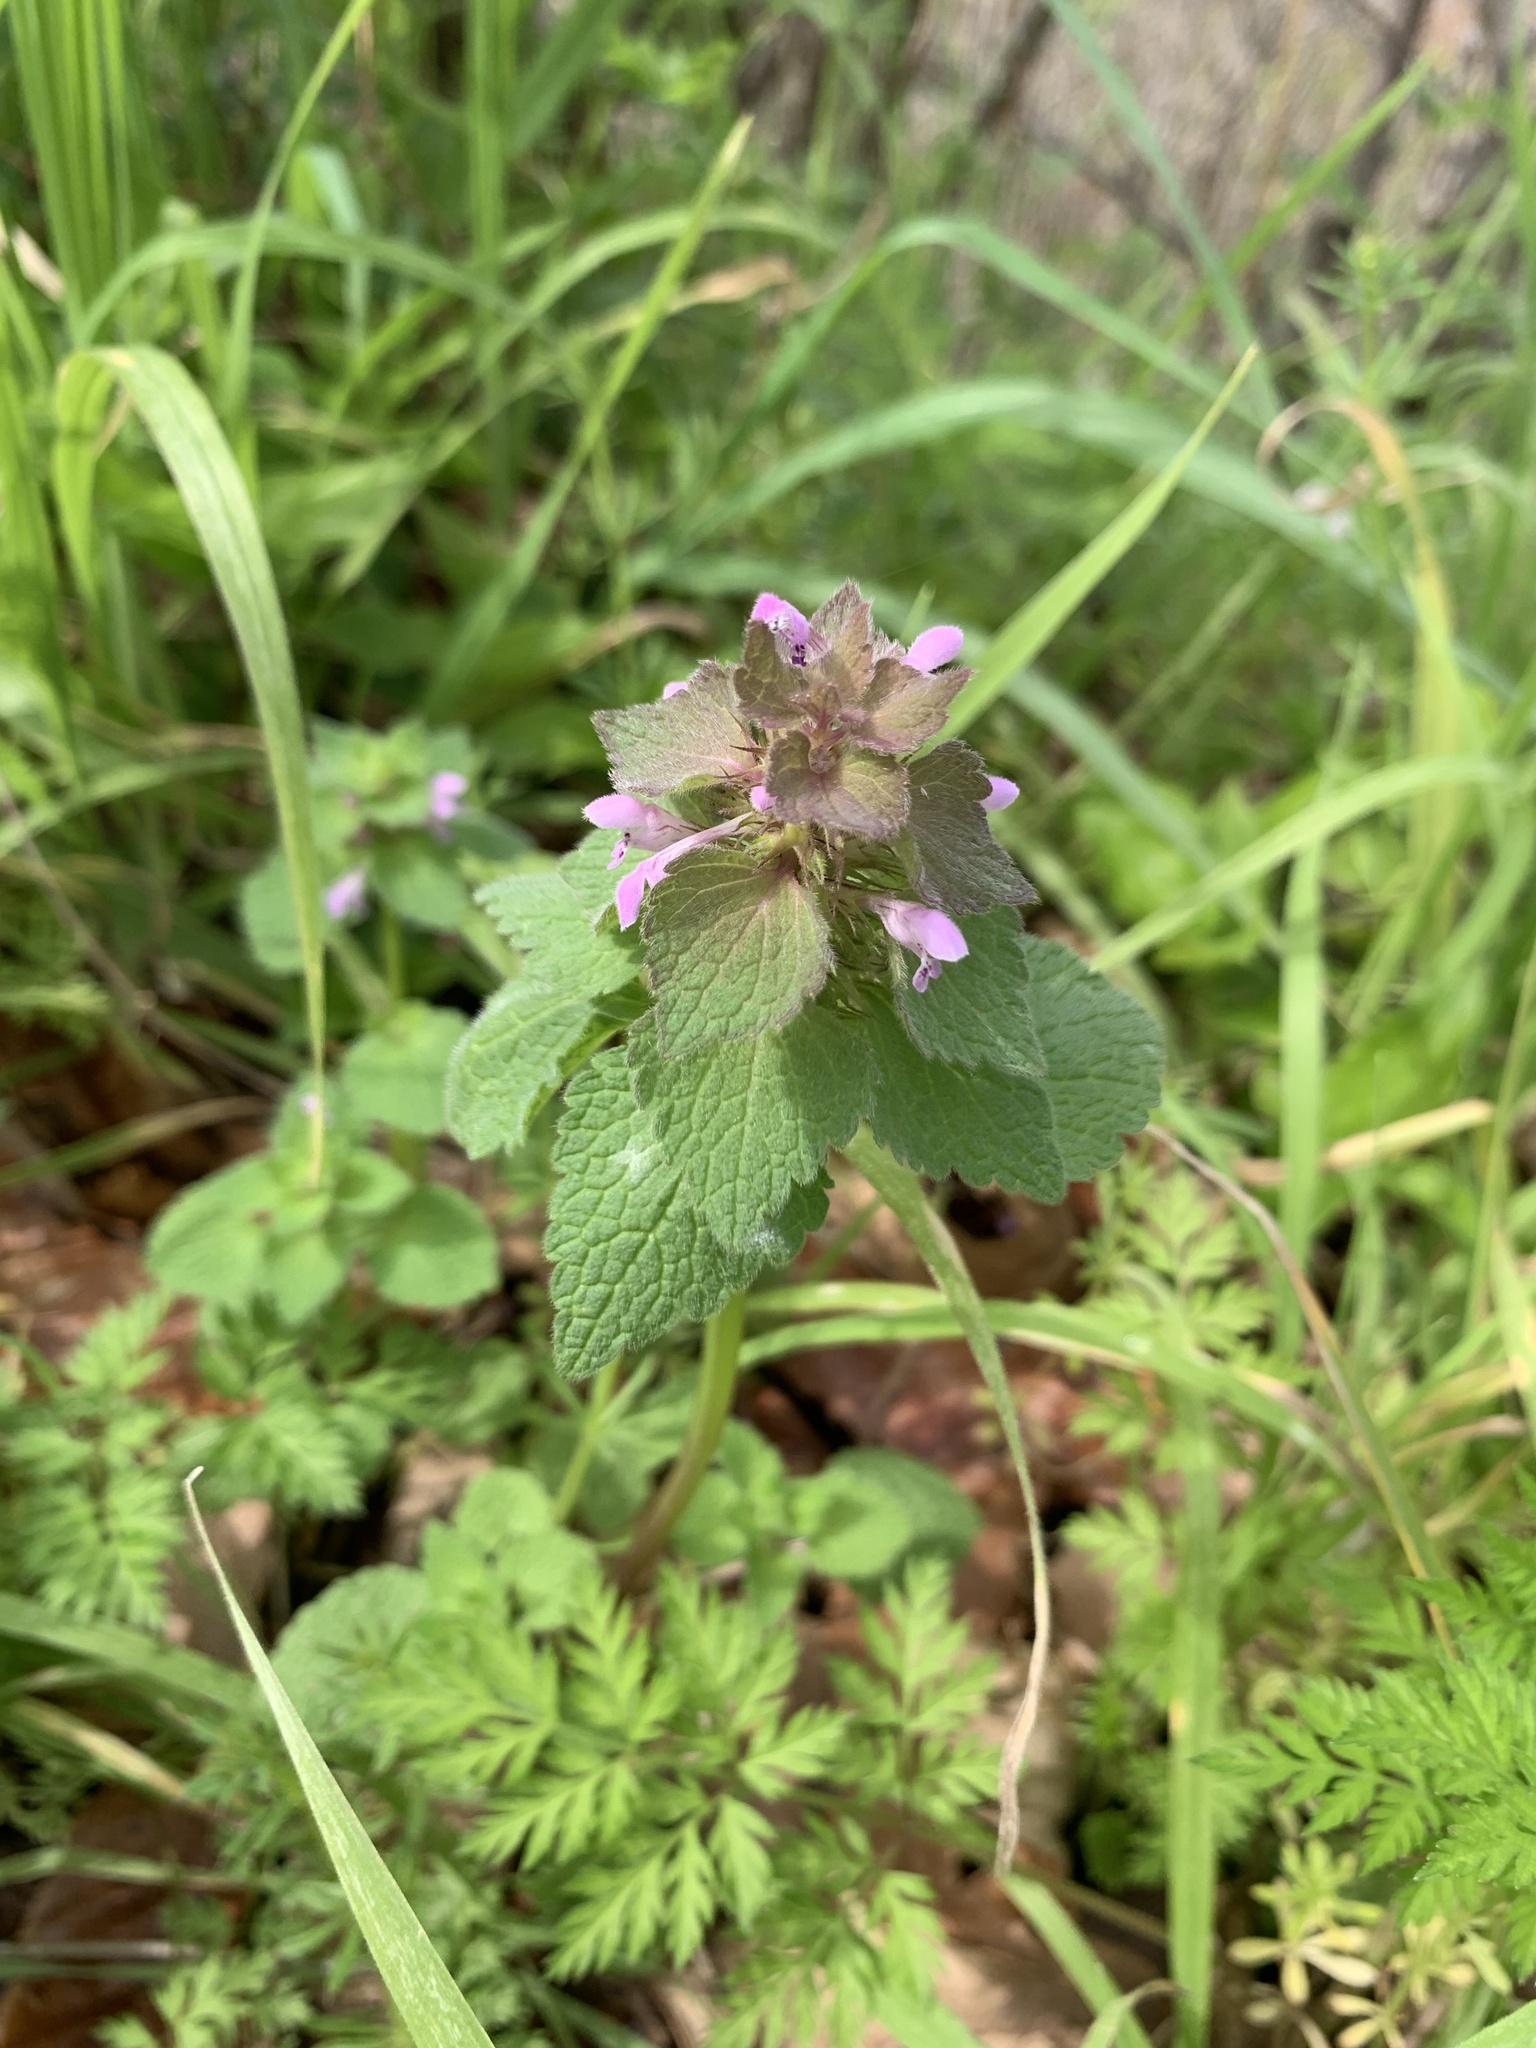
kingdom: Plantae
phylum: Tracheophyta
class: Magnoliopsida
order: Lamiales
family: Lamiaceae
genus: Lamium
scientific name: Lamium purpureum
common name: Red dead-nettle
